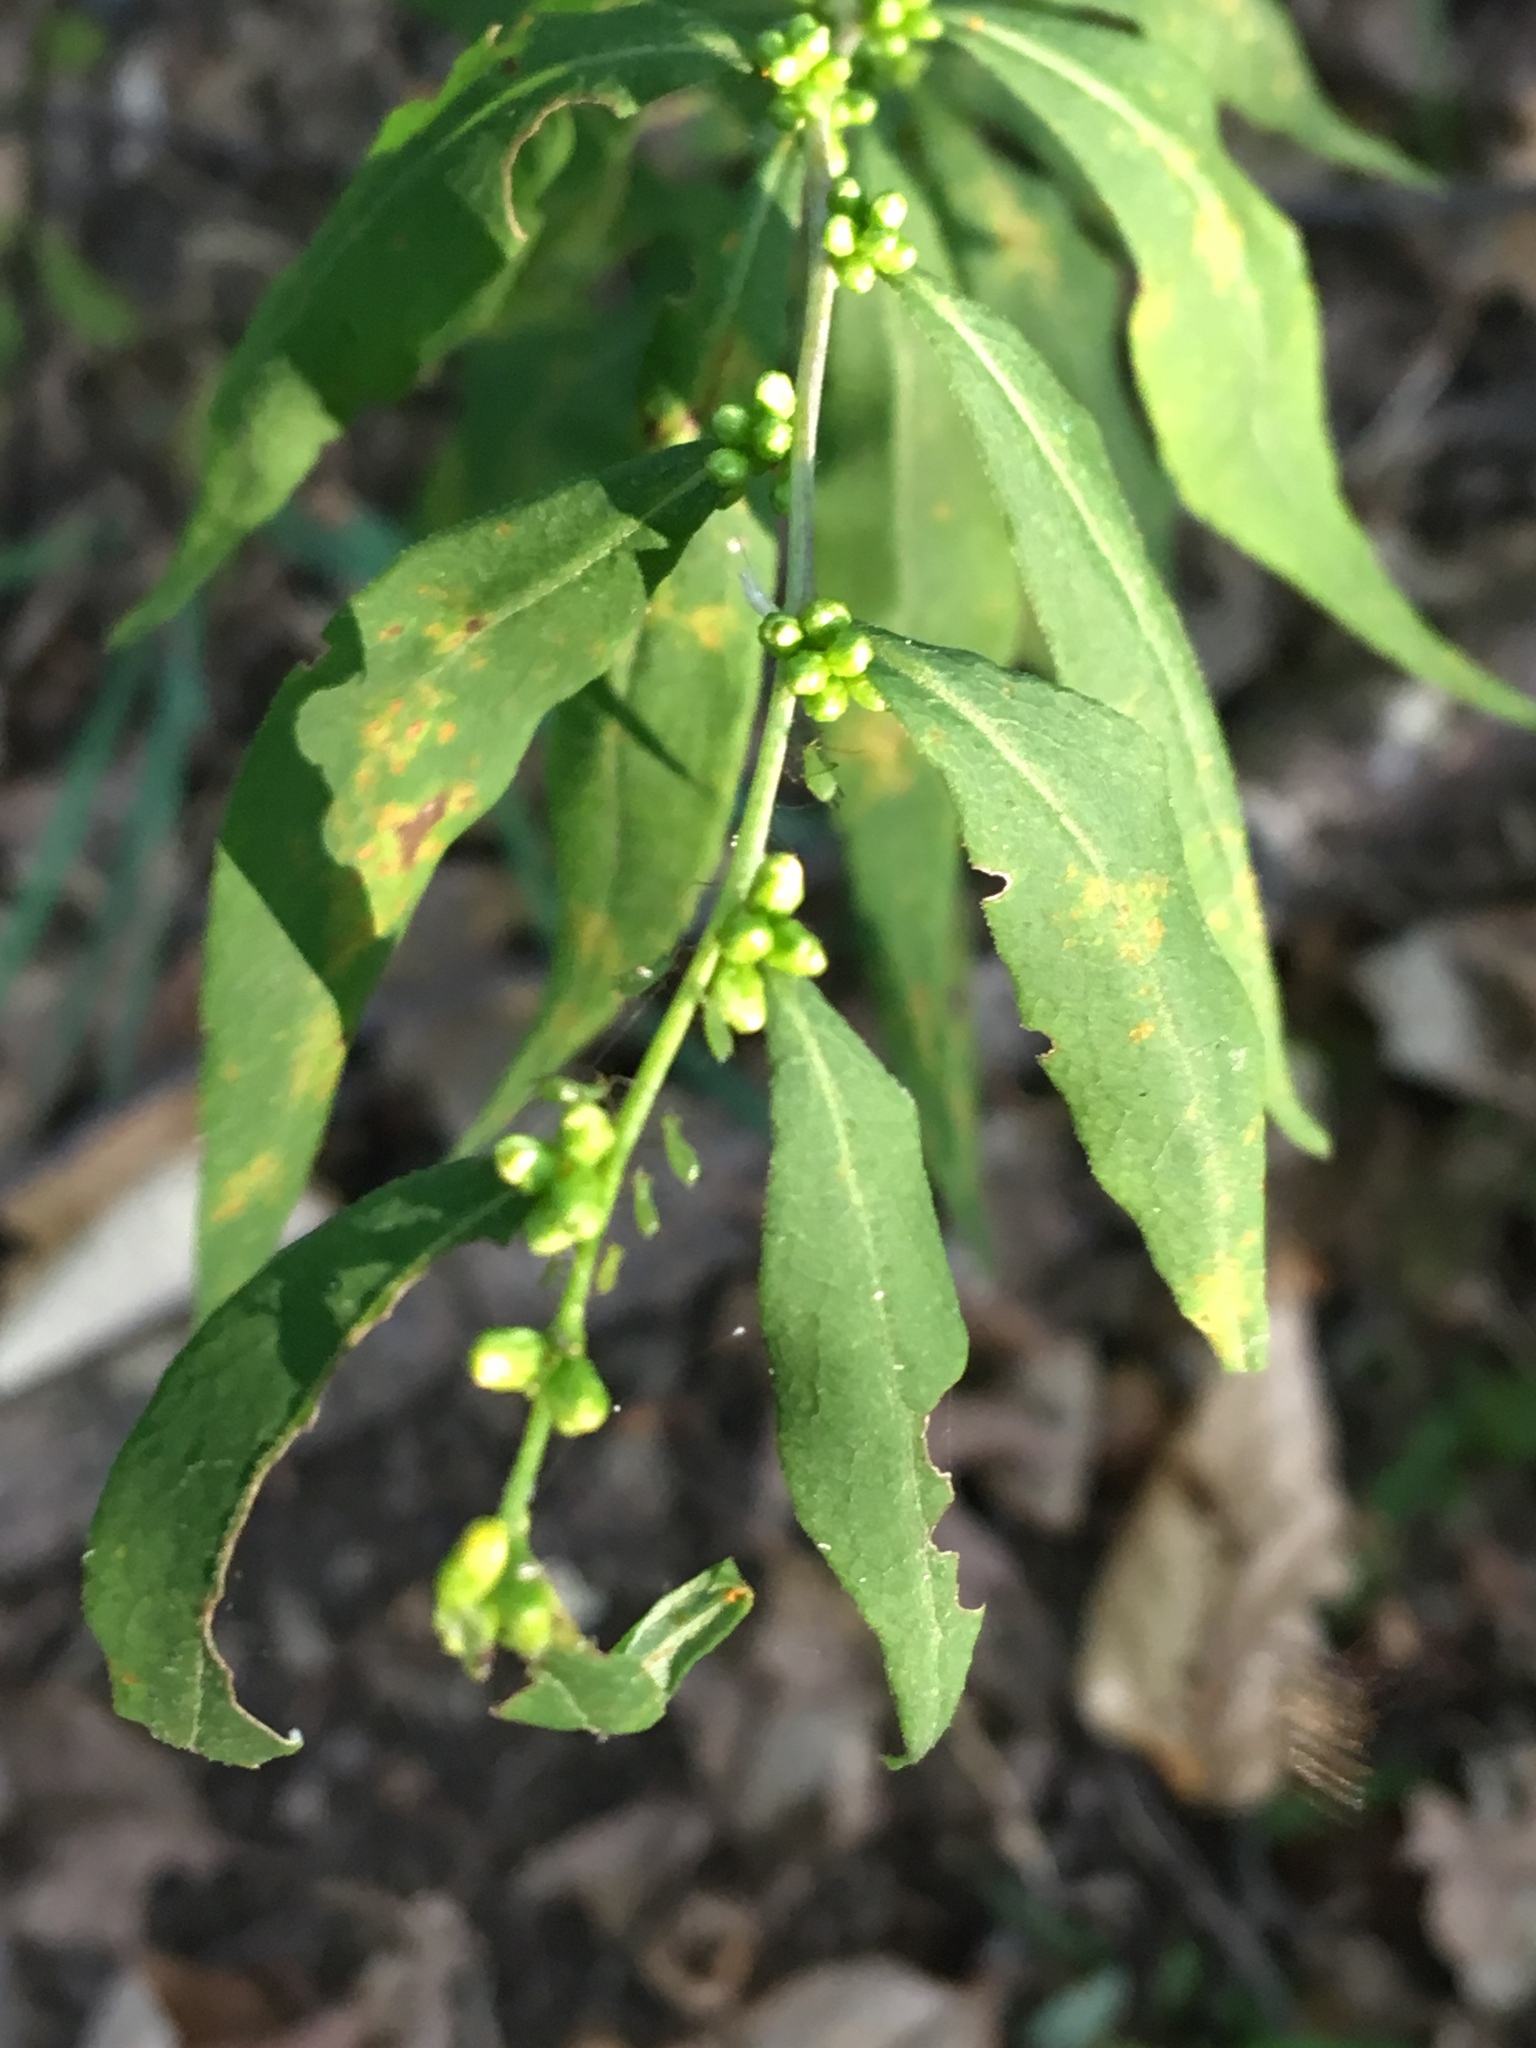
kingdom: Plantae
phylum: Tracheophyta
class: Magnoliopsida
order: Asterales
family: Asteraceae
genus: Solidago
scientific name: Solidago caesia
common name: Woodland goldenrod
